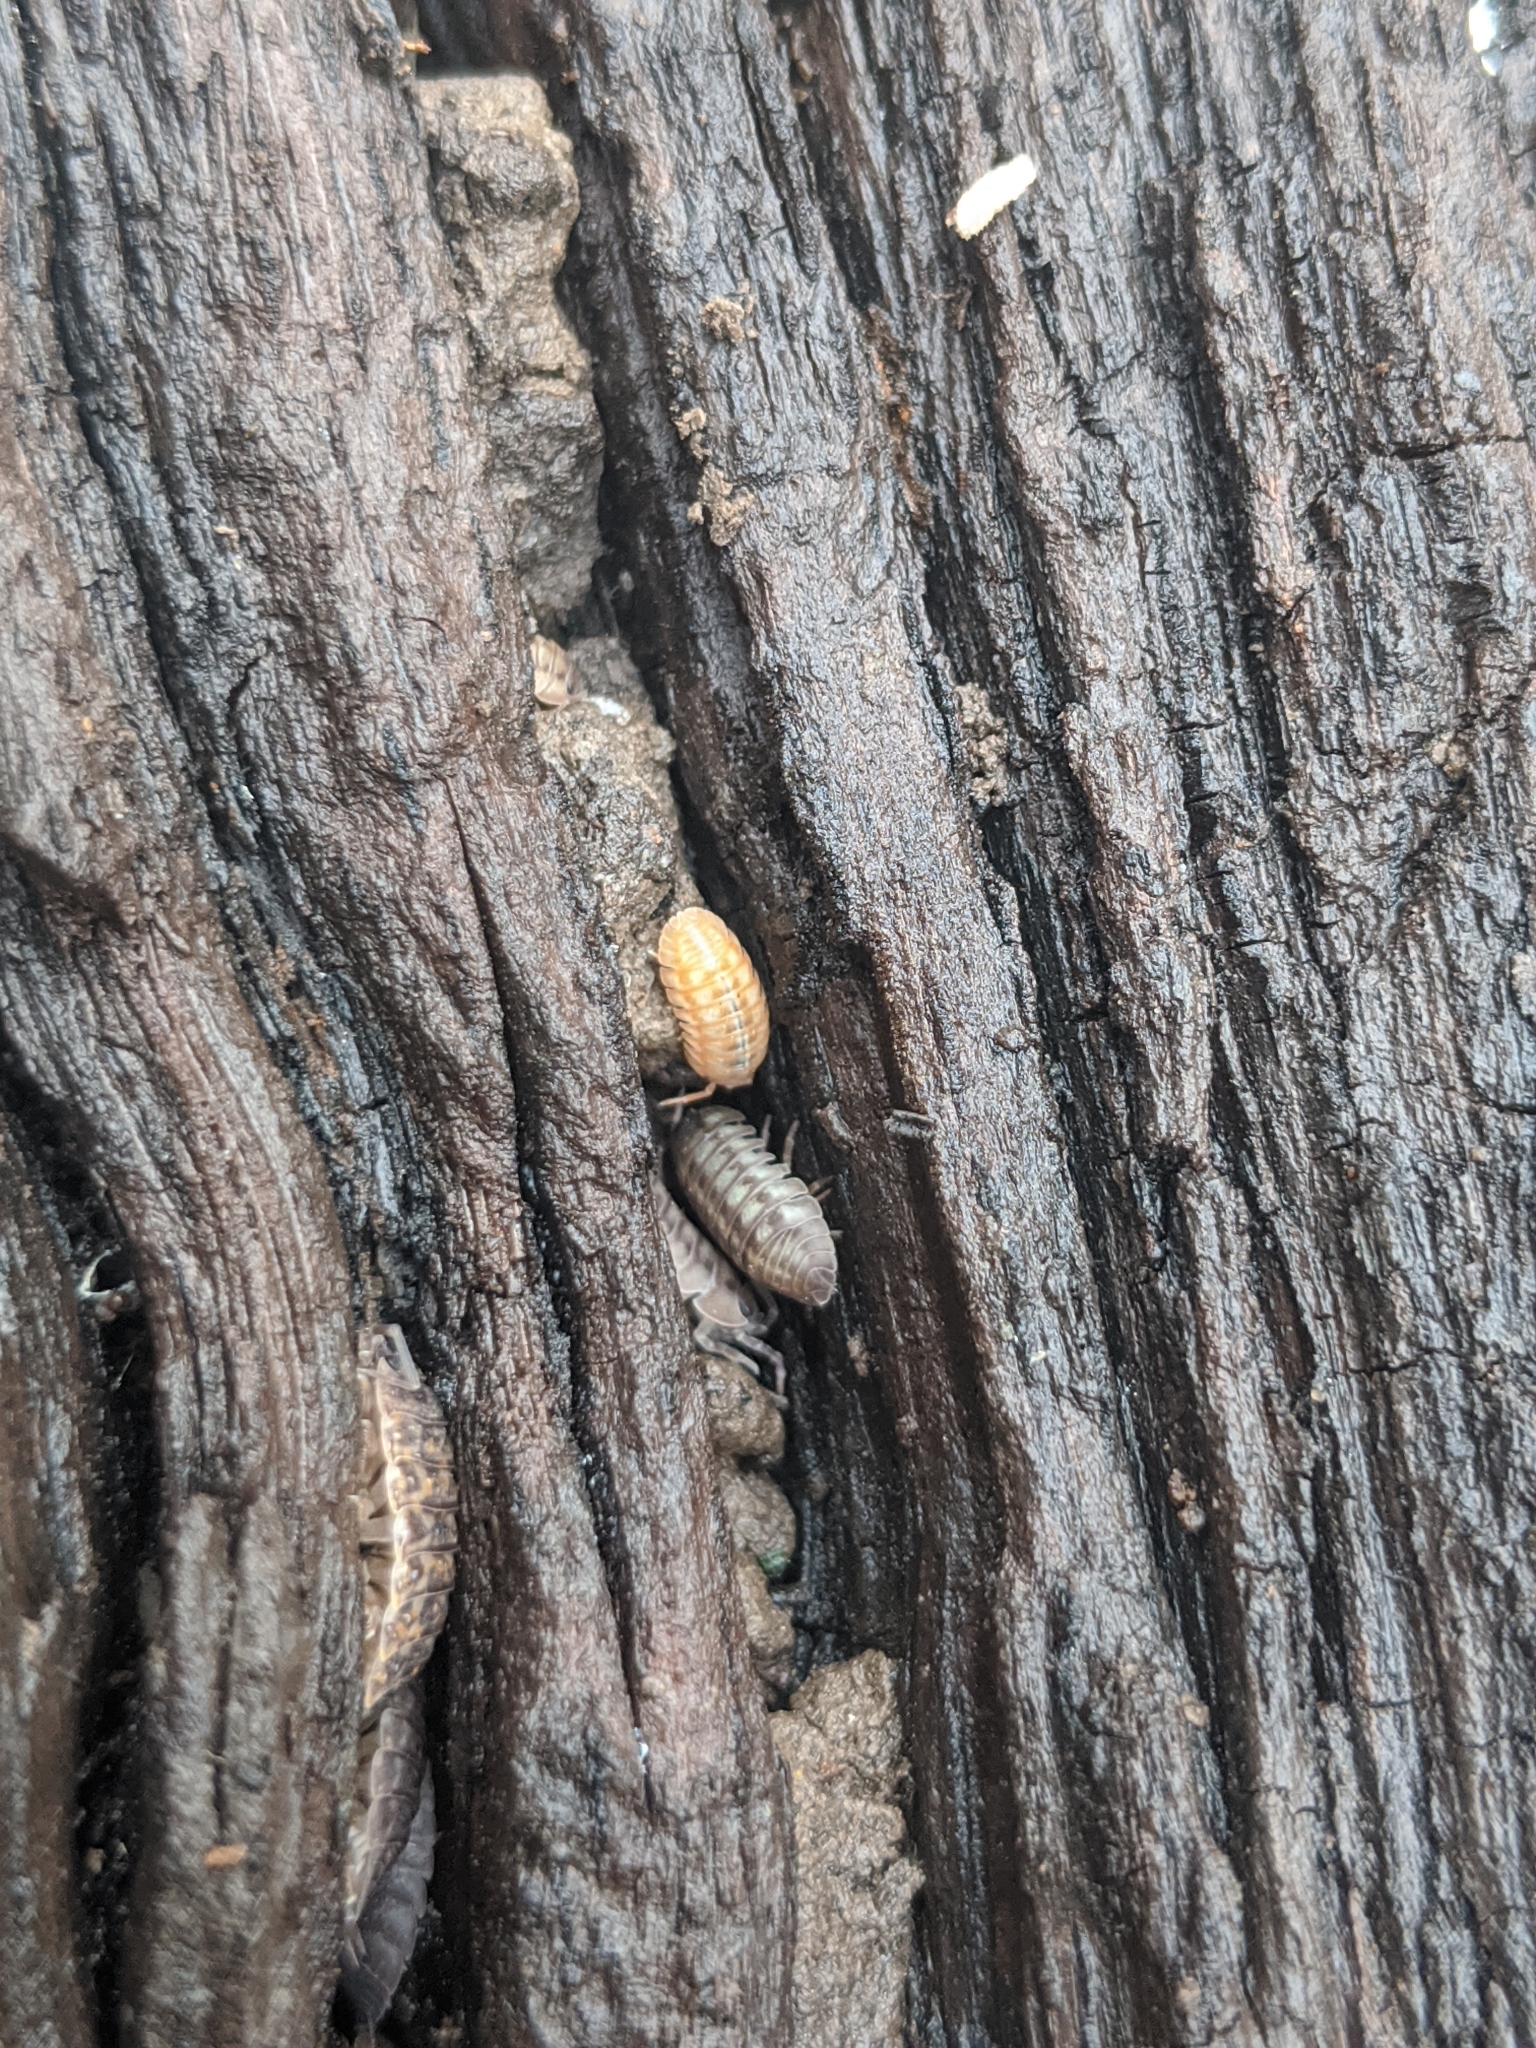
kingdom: Animalia
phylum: Arthropoda
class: Malacostraca
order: Isopoda
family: Armadillidiidae
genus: Armadillidium
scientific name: Armadillidium nasatum
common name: Isopod
